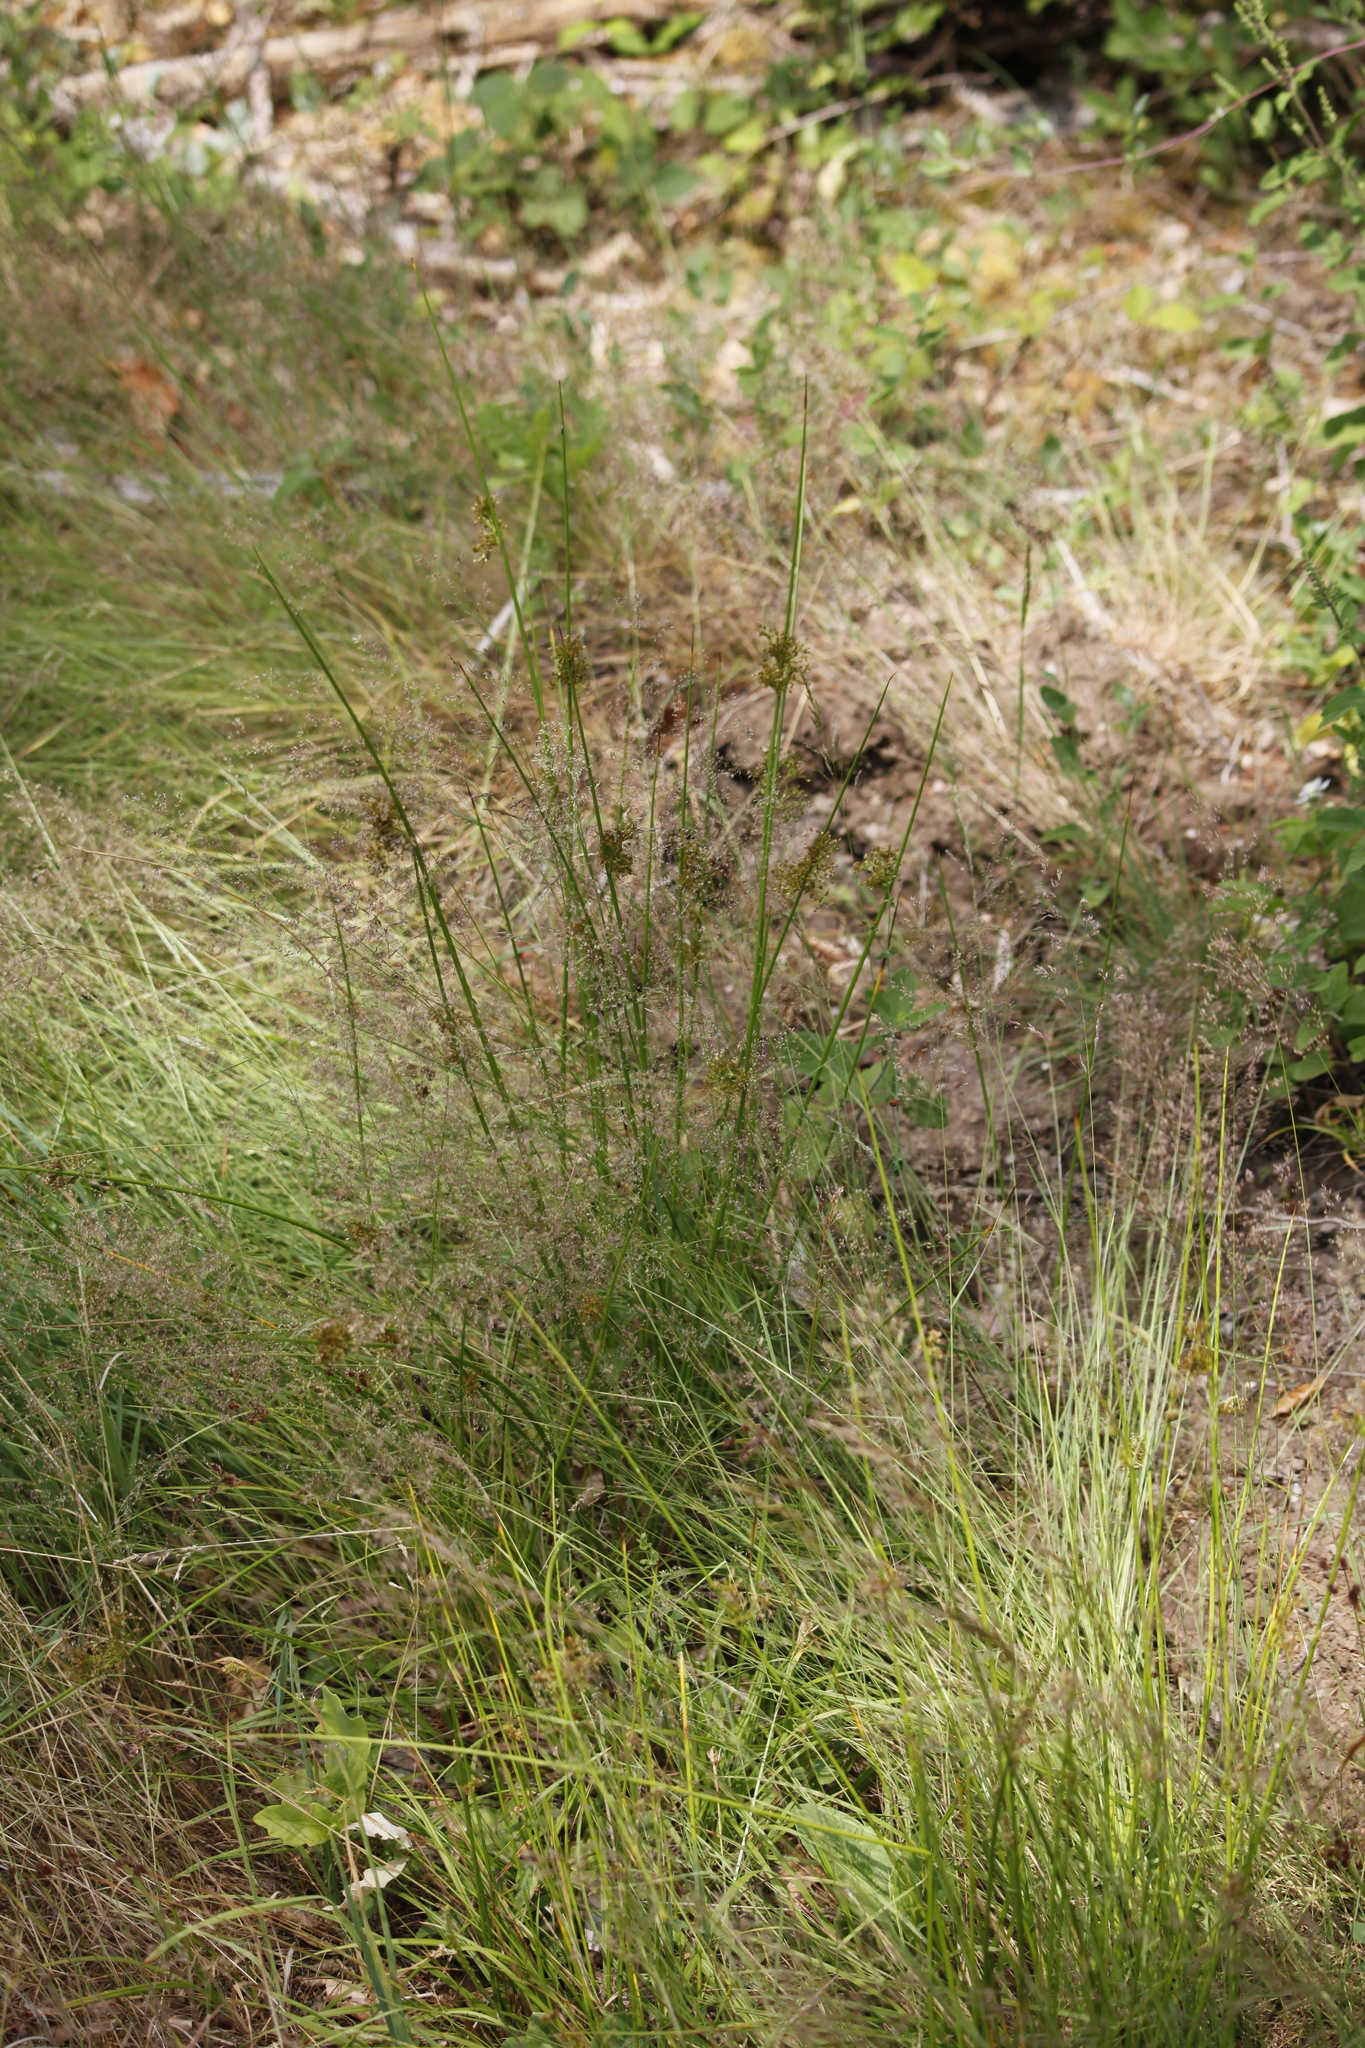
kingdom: Plantae
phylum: Tracheophyta
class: Liliopsida
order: Poales
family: Juncaceae
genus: Juncus
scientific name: Juncus effusus
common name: Soft rush
